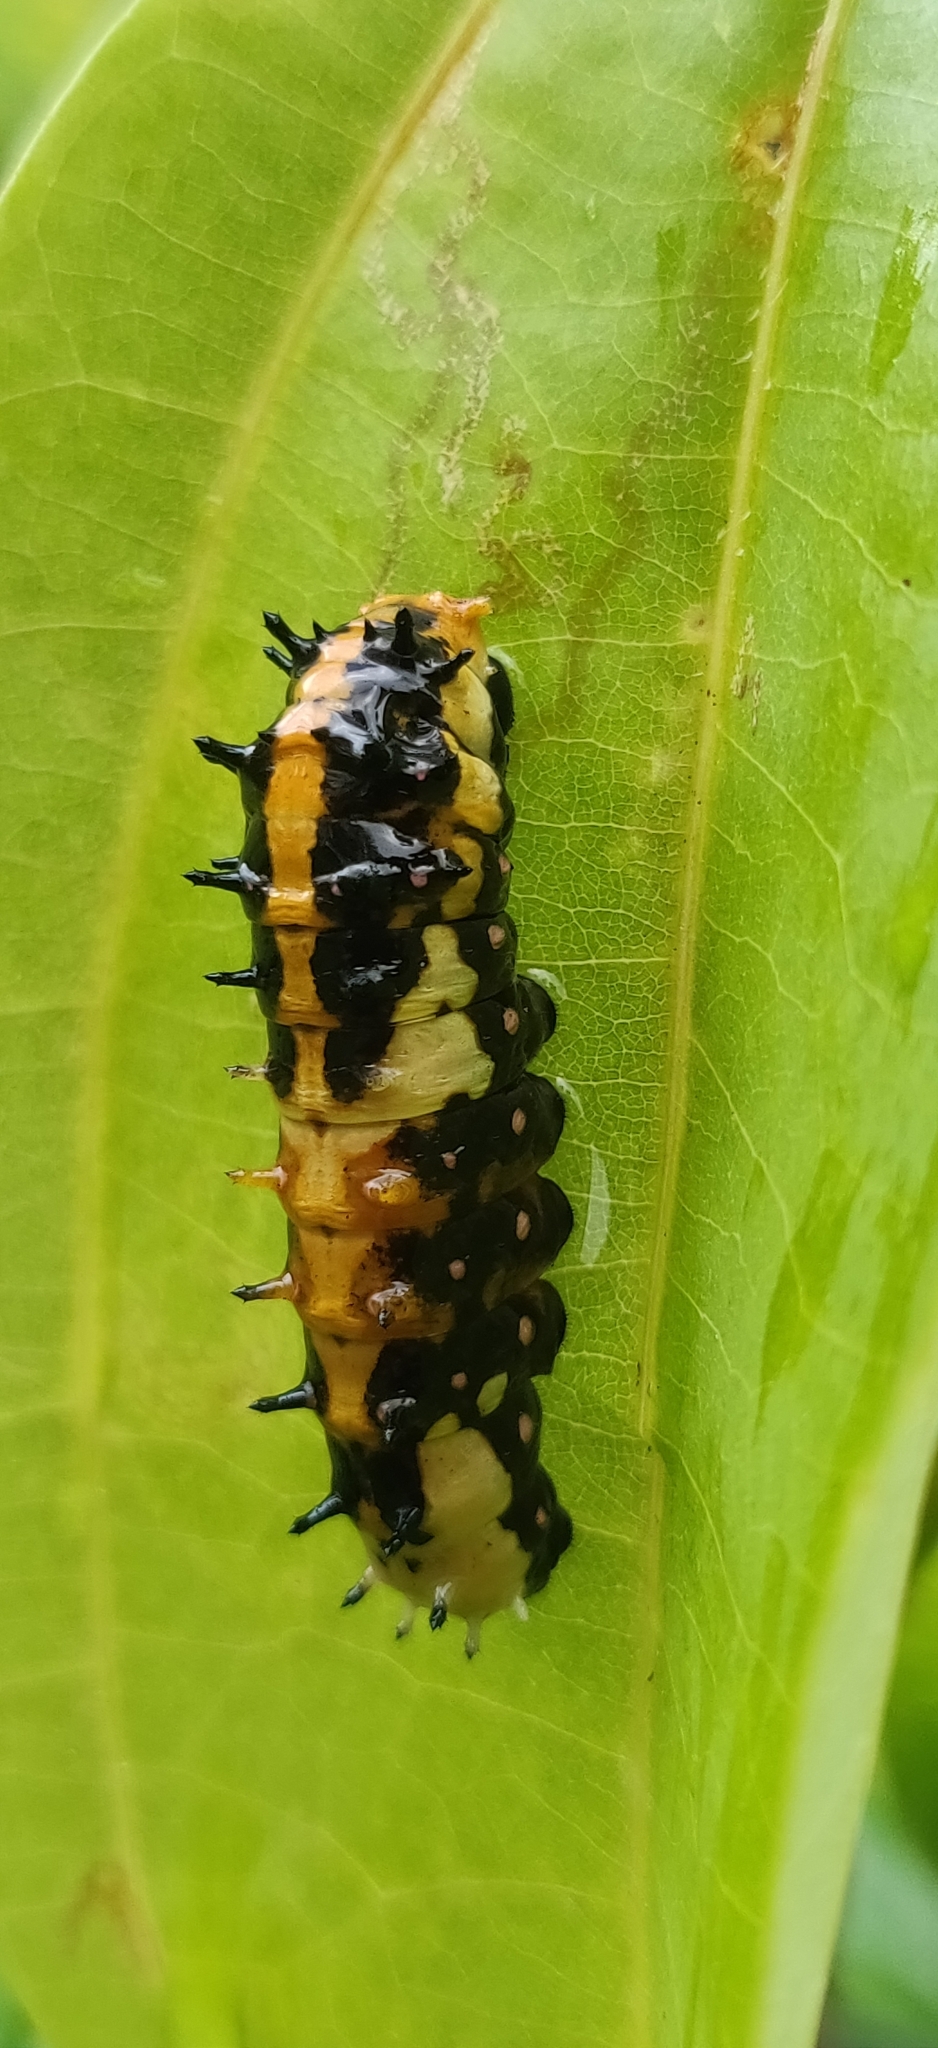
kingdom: Animalia
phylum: Arthropoda
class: Insecta
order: Lepidoptera
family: Papilionidae
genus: Chilasa
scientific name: Chilasa clytia
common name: Common mime
